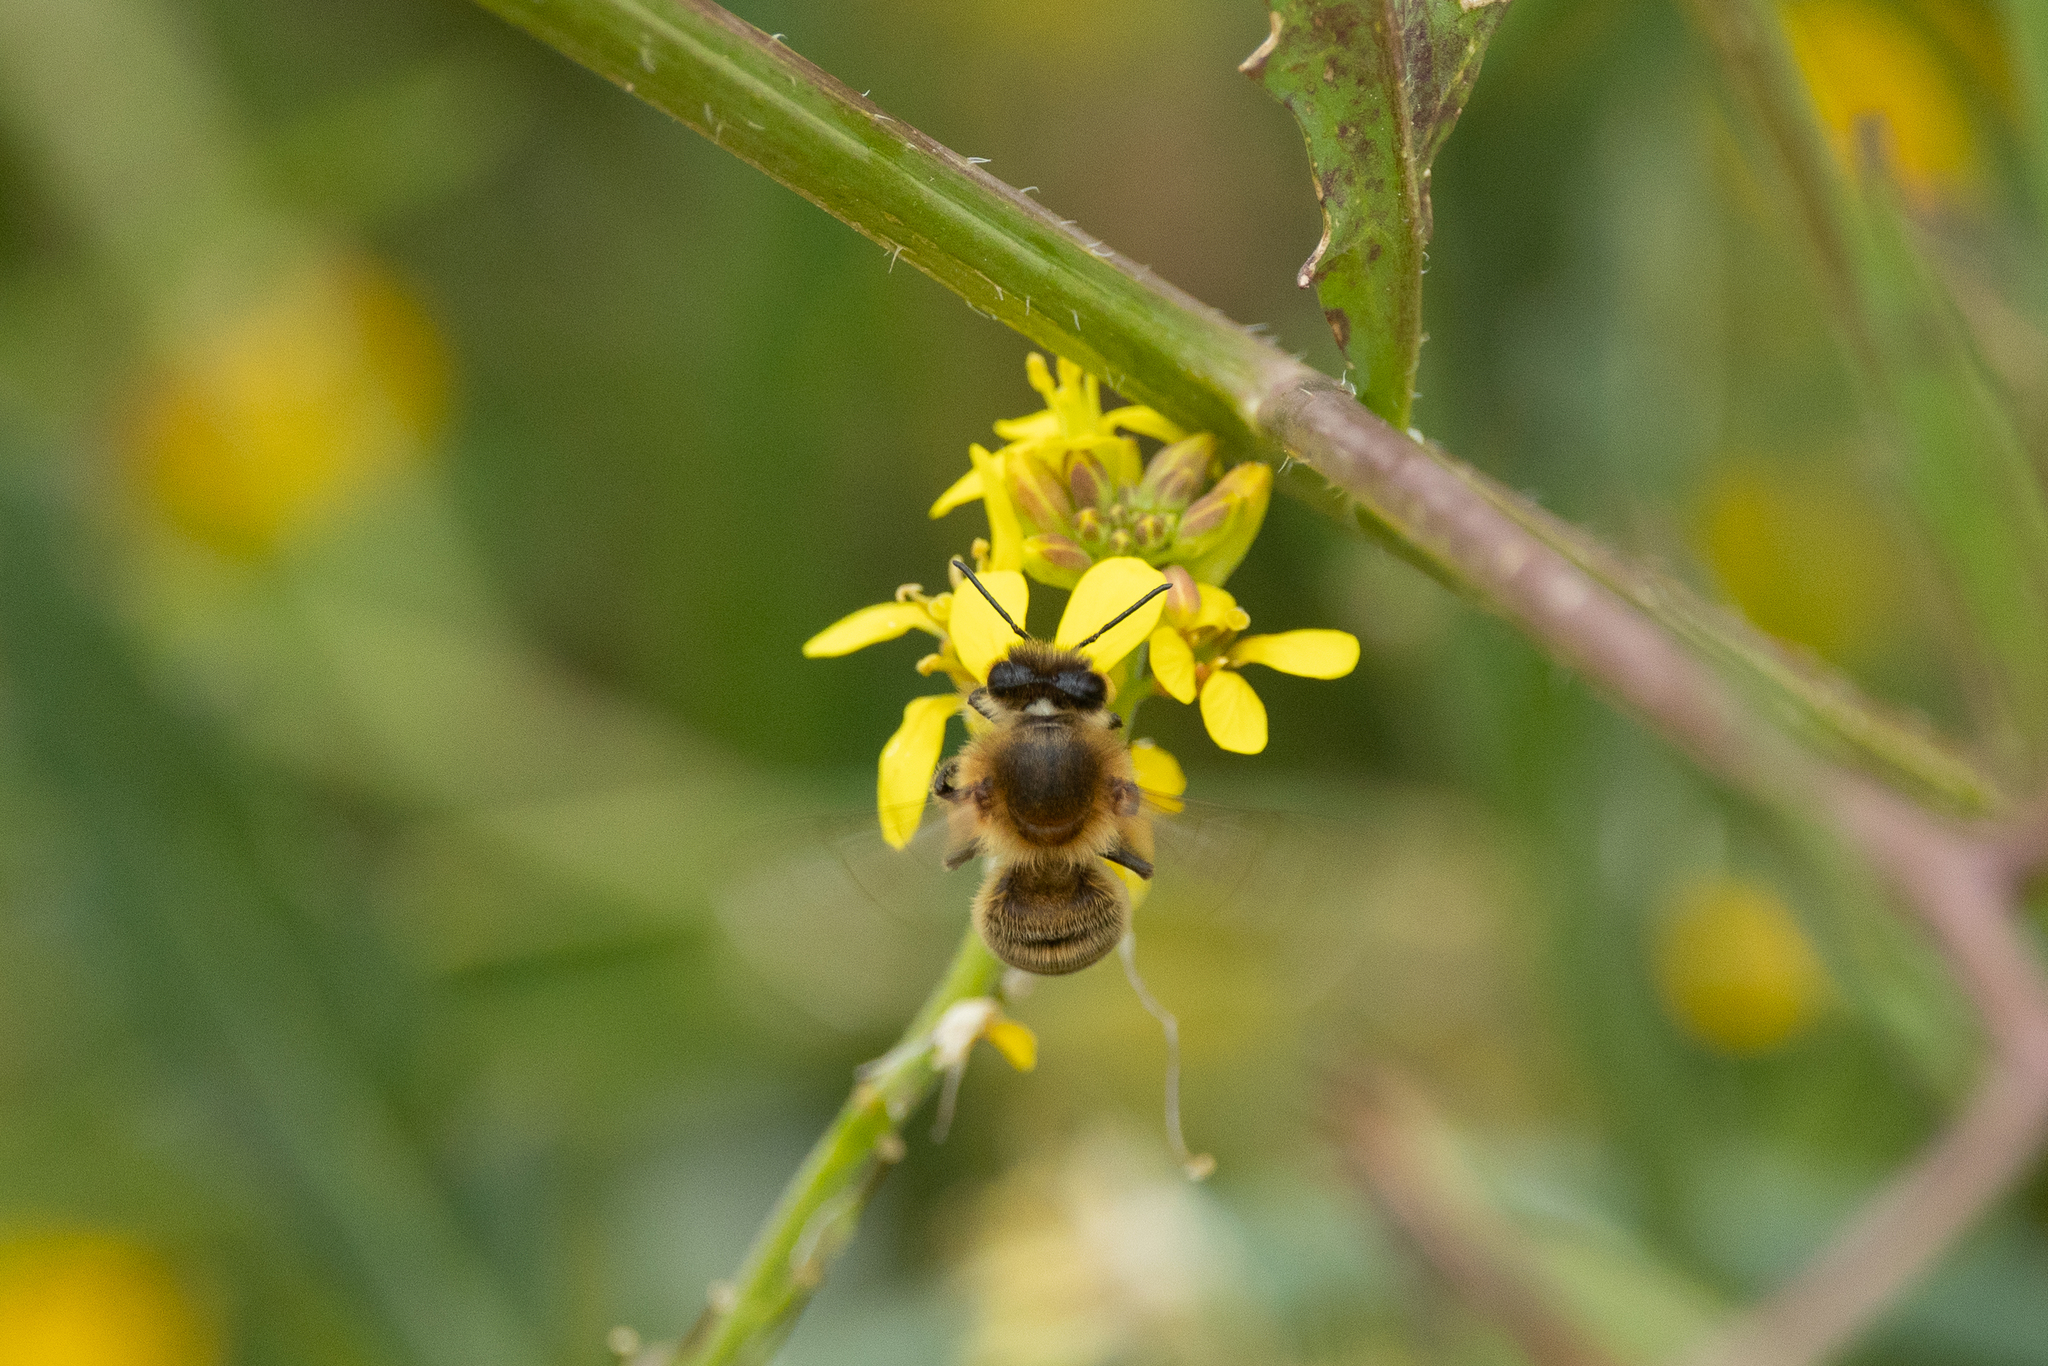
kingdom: Animalia
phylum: Arthropoda
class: Insecta
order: Hymenoptera
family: Apidae
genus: Apis
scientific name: Apis mellifera
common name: Honey bee
